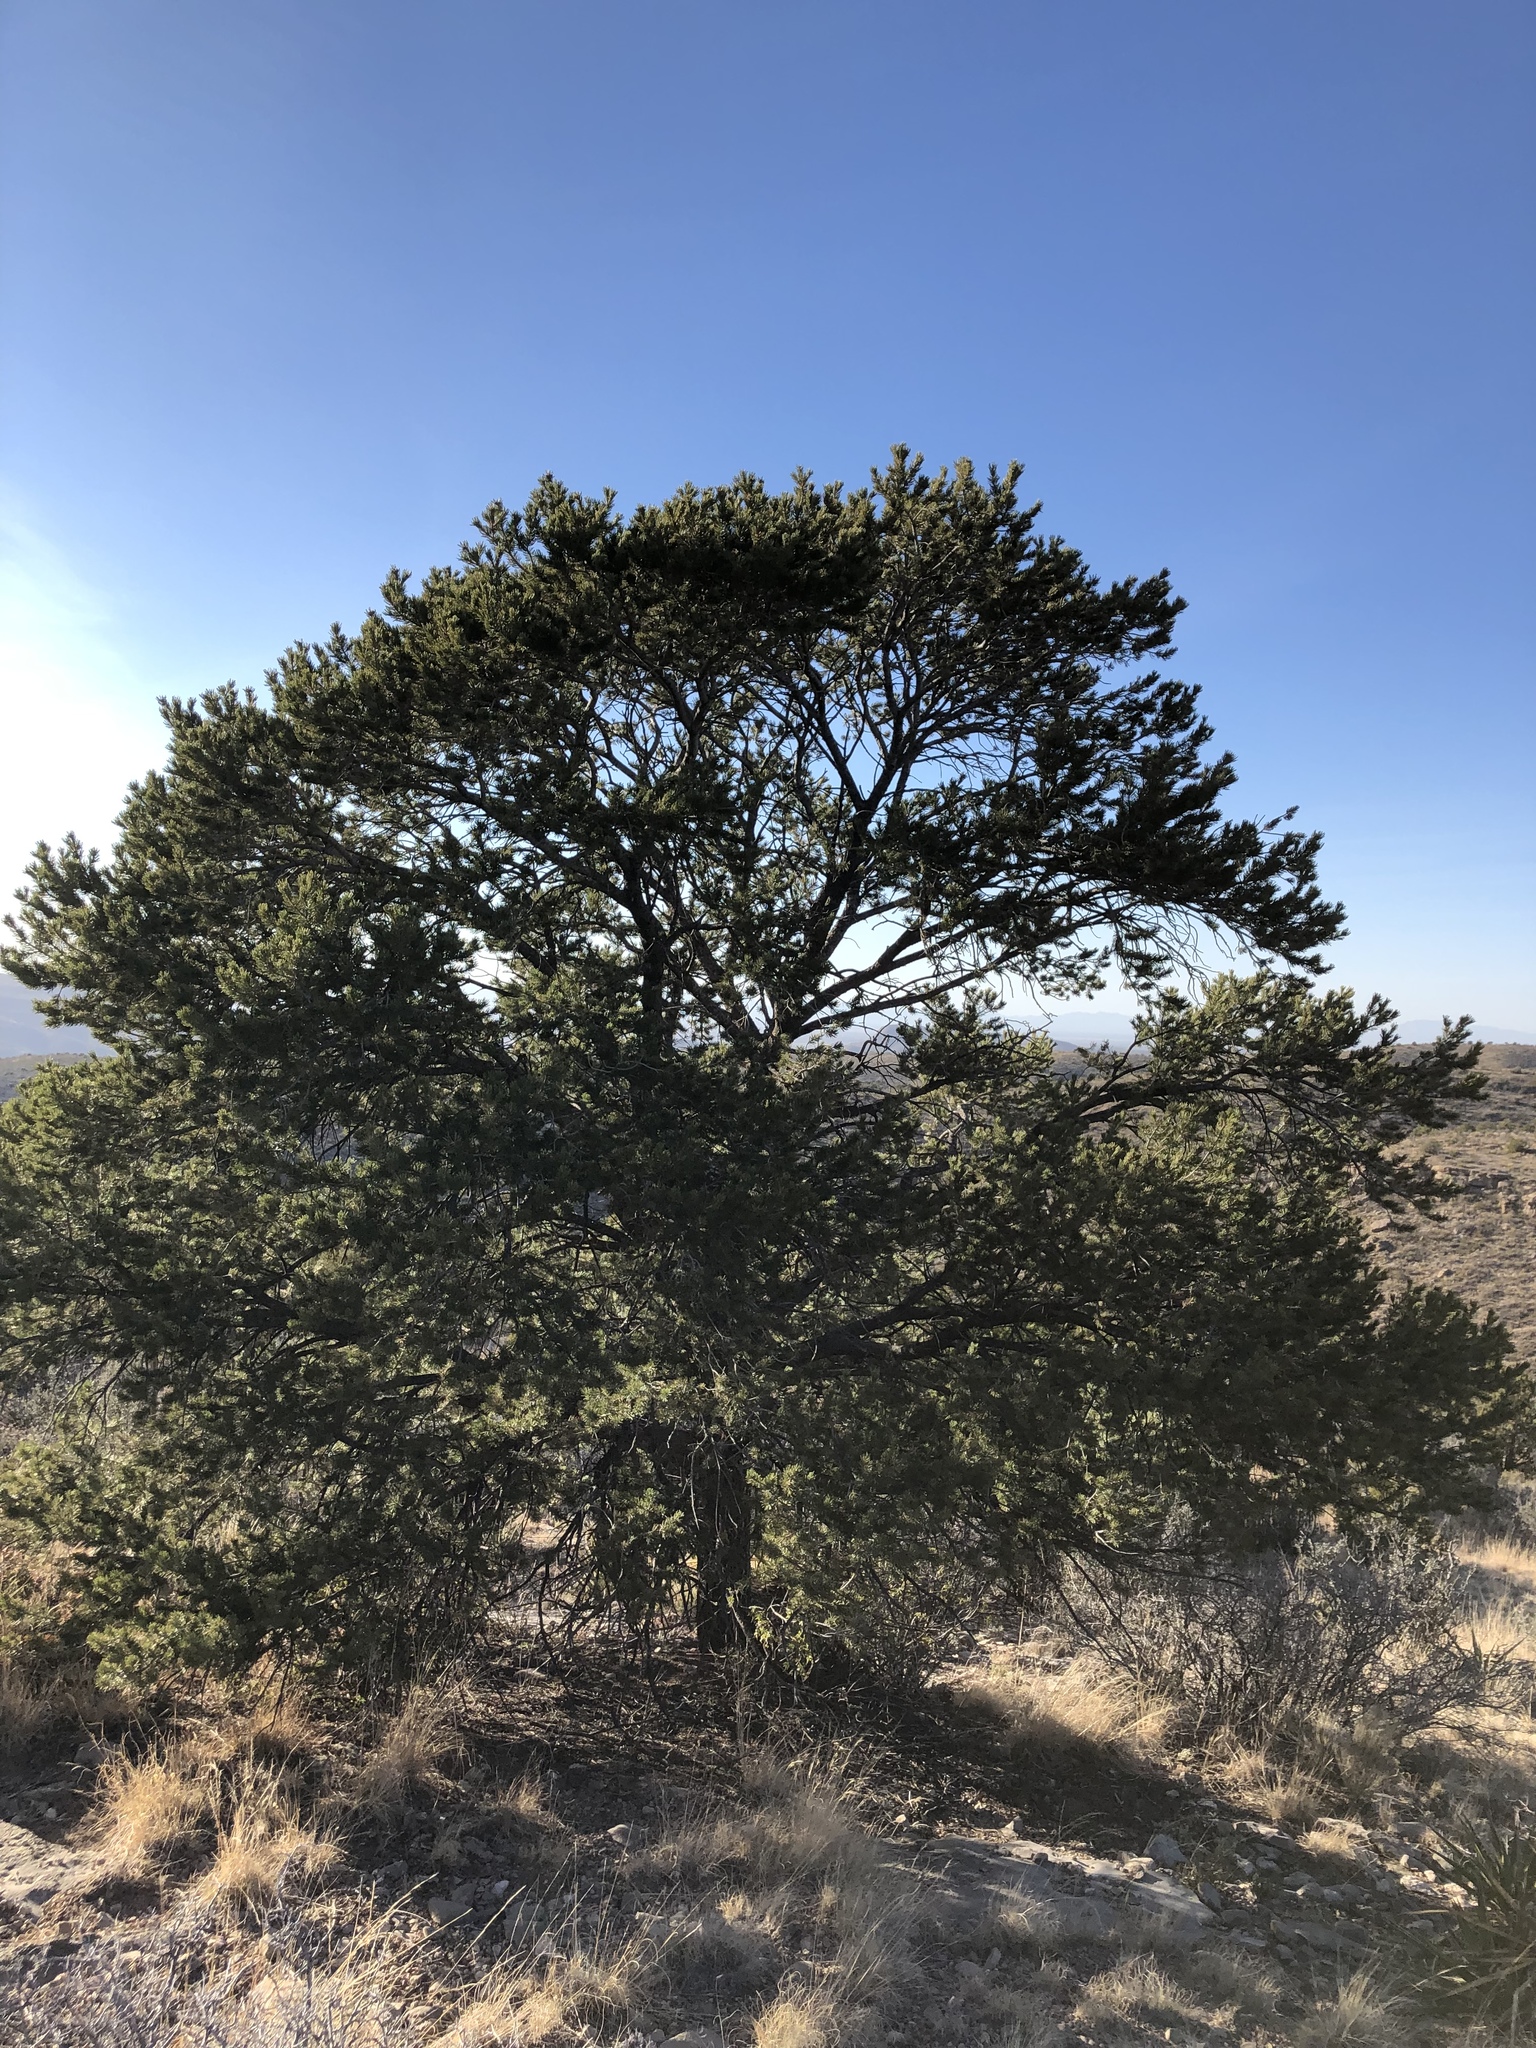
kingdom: Plantae
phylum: Tracheophyta
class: Pinopsida
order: Pinales
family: Pinaceae
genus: Pinus
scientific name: Pinus edulis
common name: Colorado pinyon
